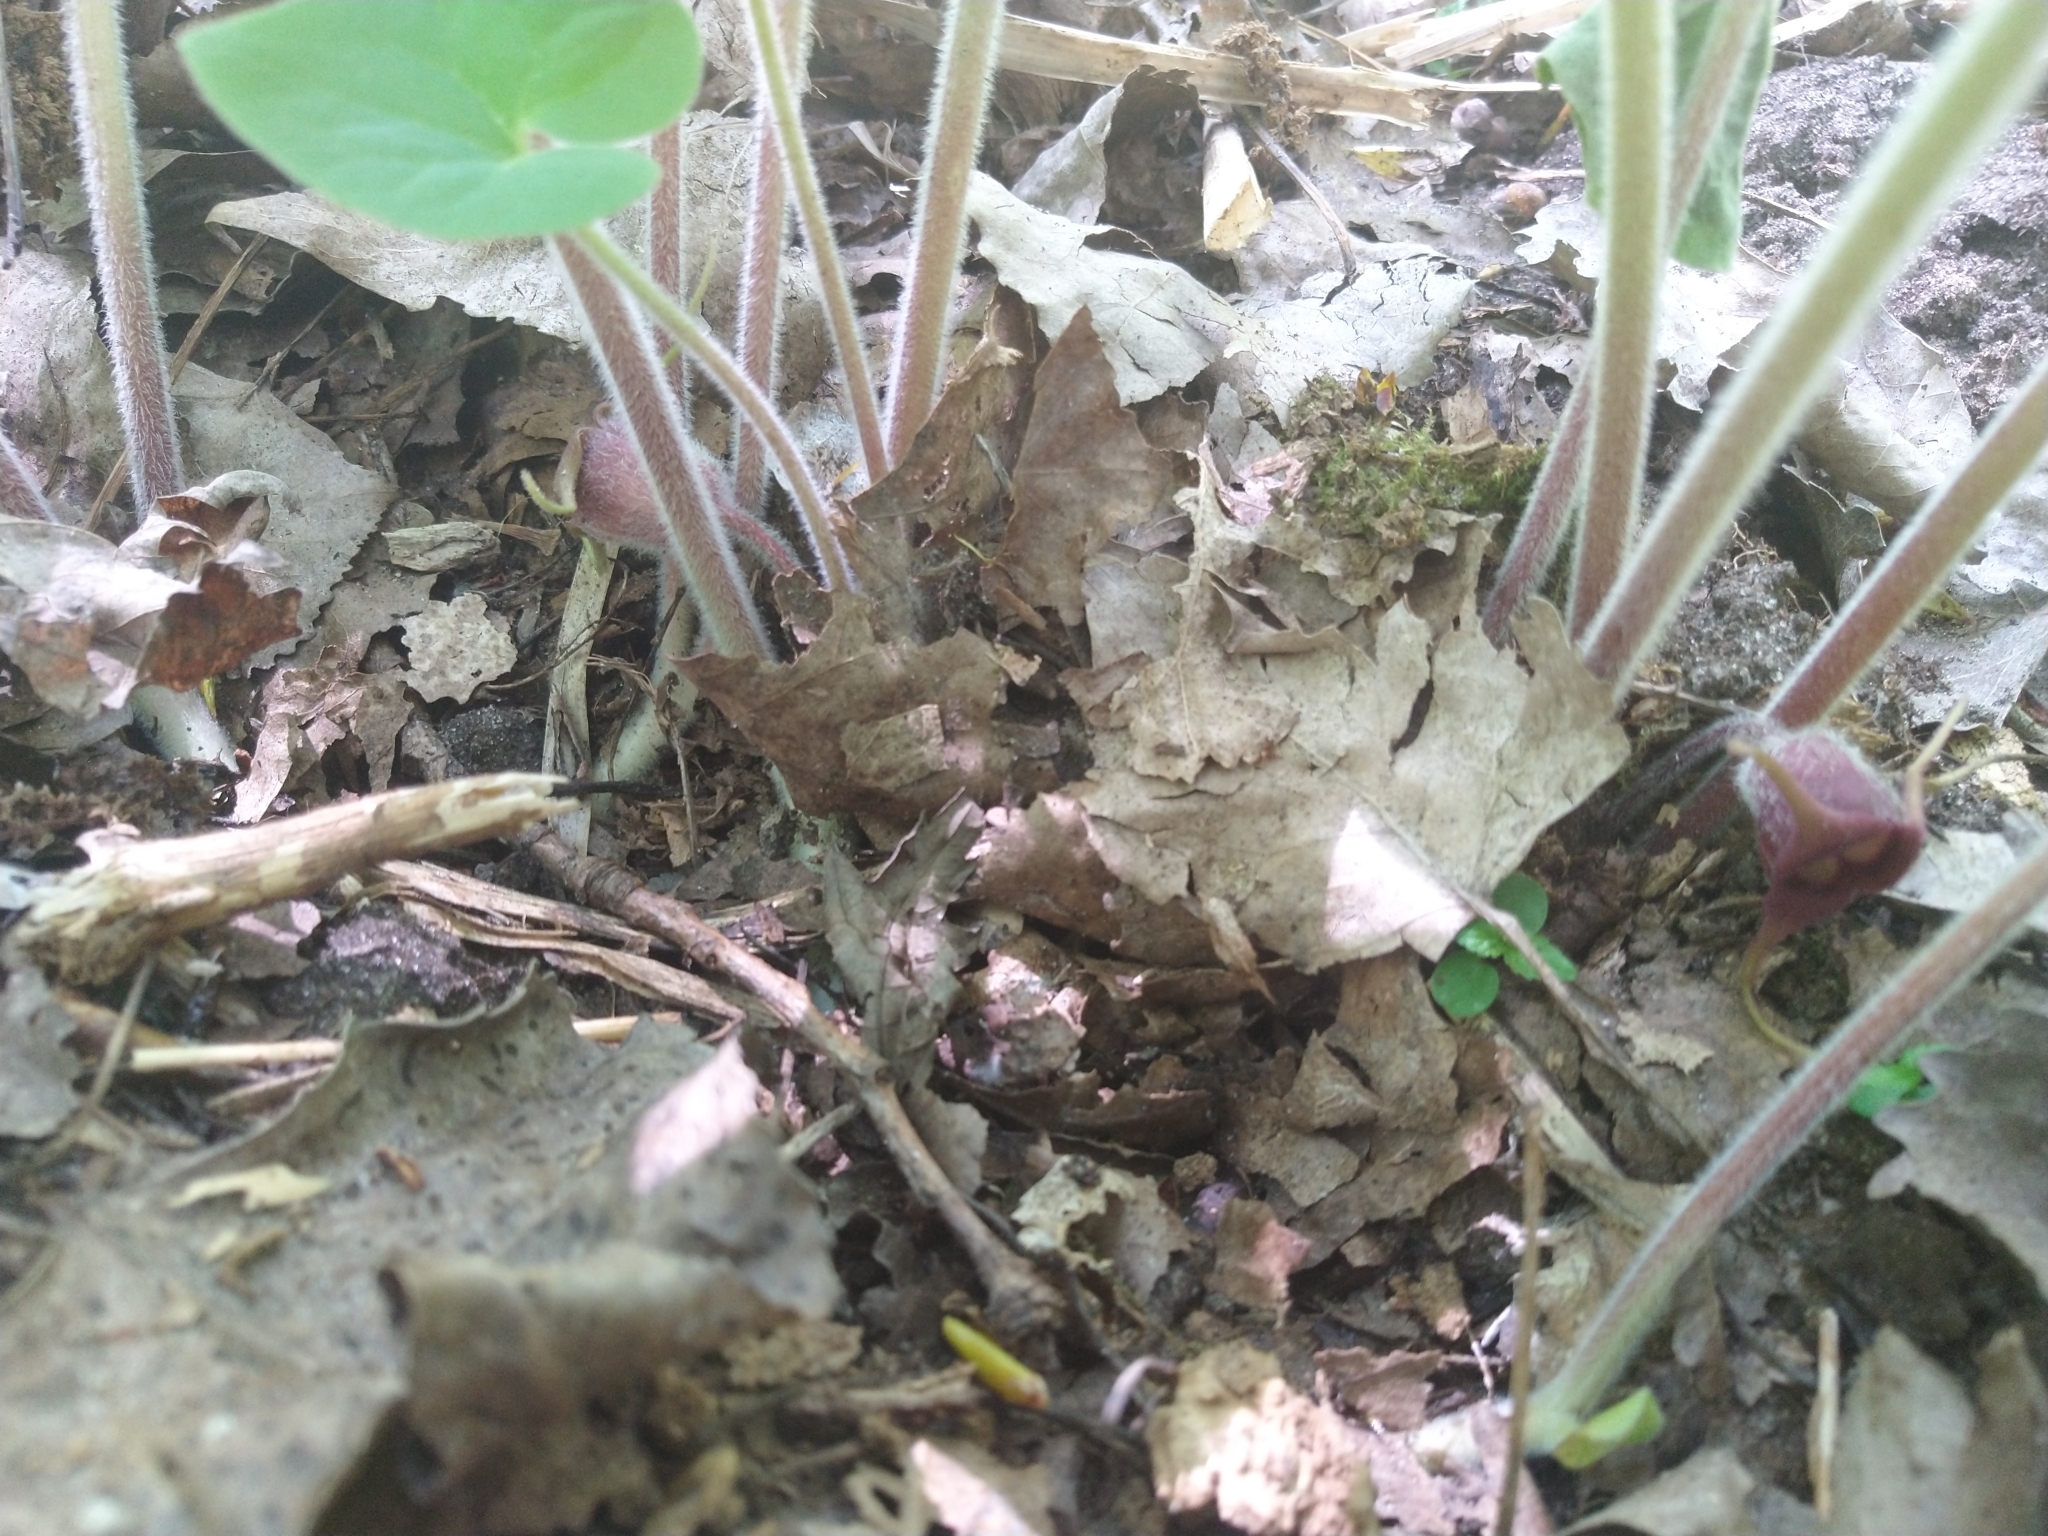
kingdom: Plantae
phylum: Tracheophyta
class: Magnoliopsida
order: Piperales
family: Aristolochiaceae
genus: Asarum
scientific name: Asarum canadense
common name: Wild ginger
